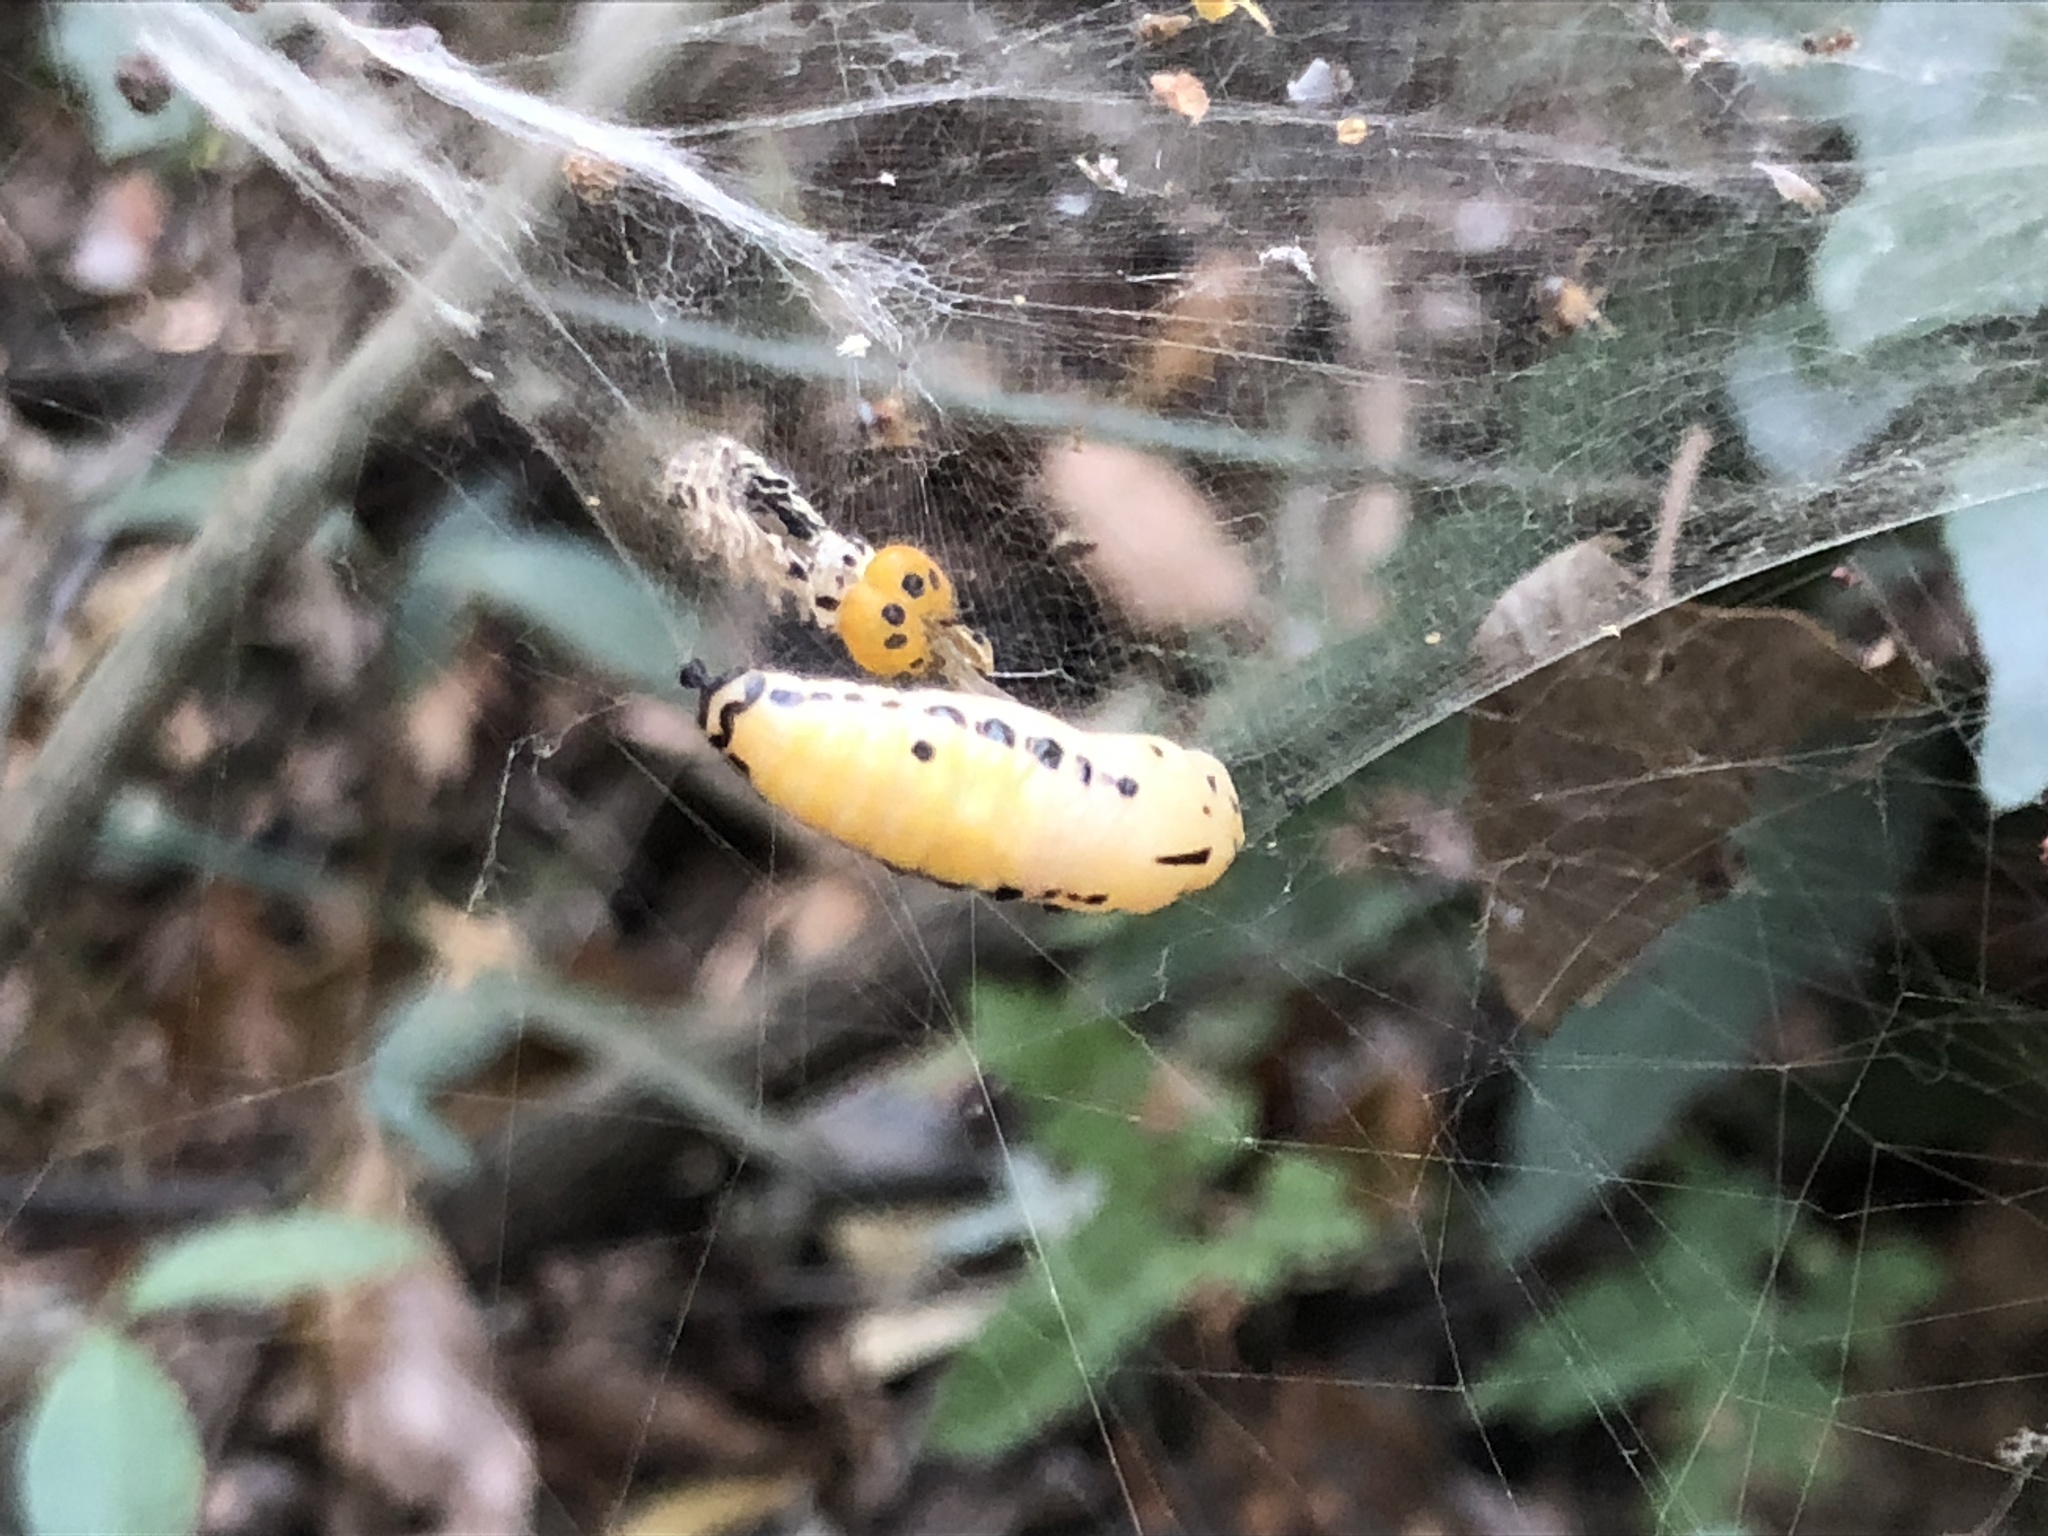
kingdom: Animalia
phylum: Arthropoda
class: Insecta
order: Lepidoptera
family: Hesperiidae
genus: Bibasis
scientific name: Bibasis gomata
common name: Pale green awlet
